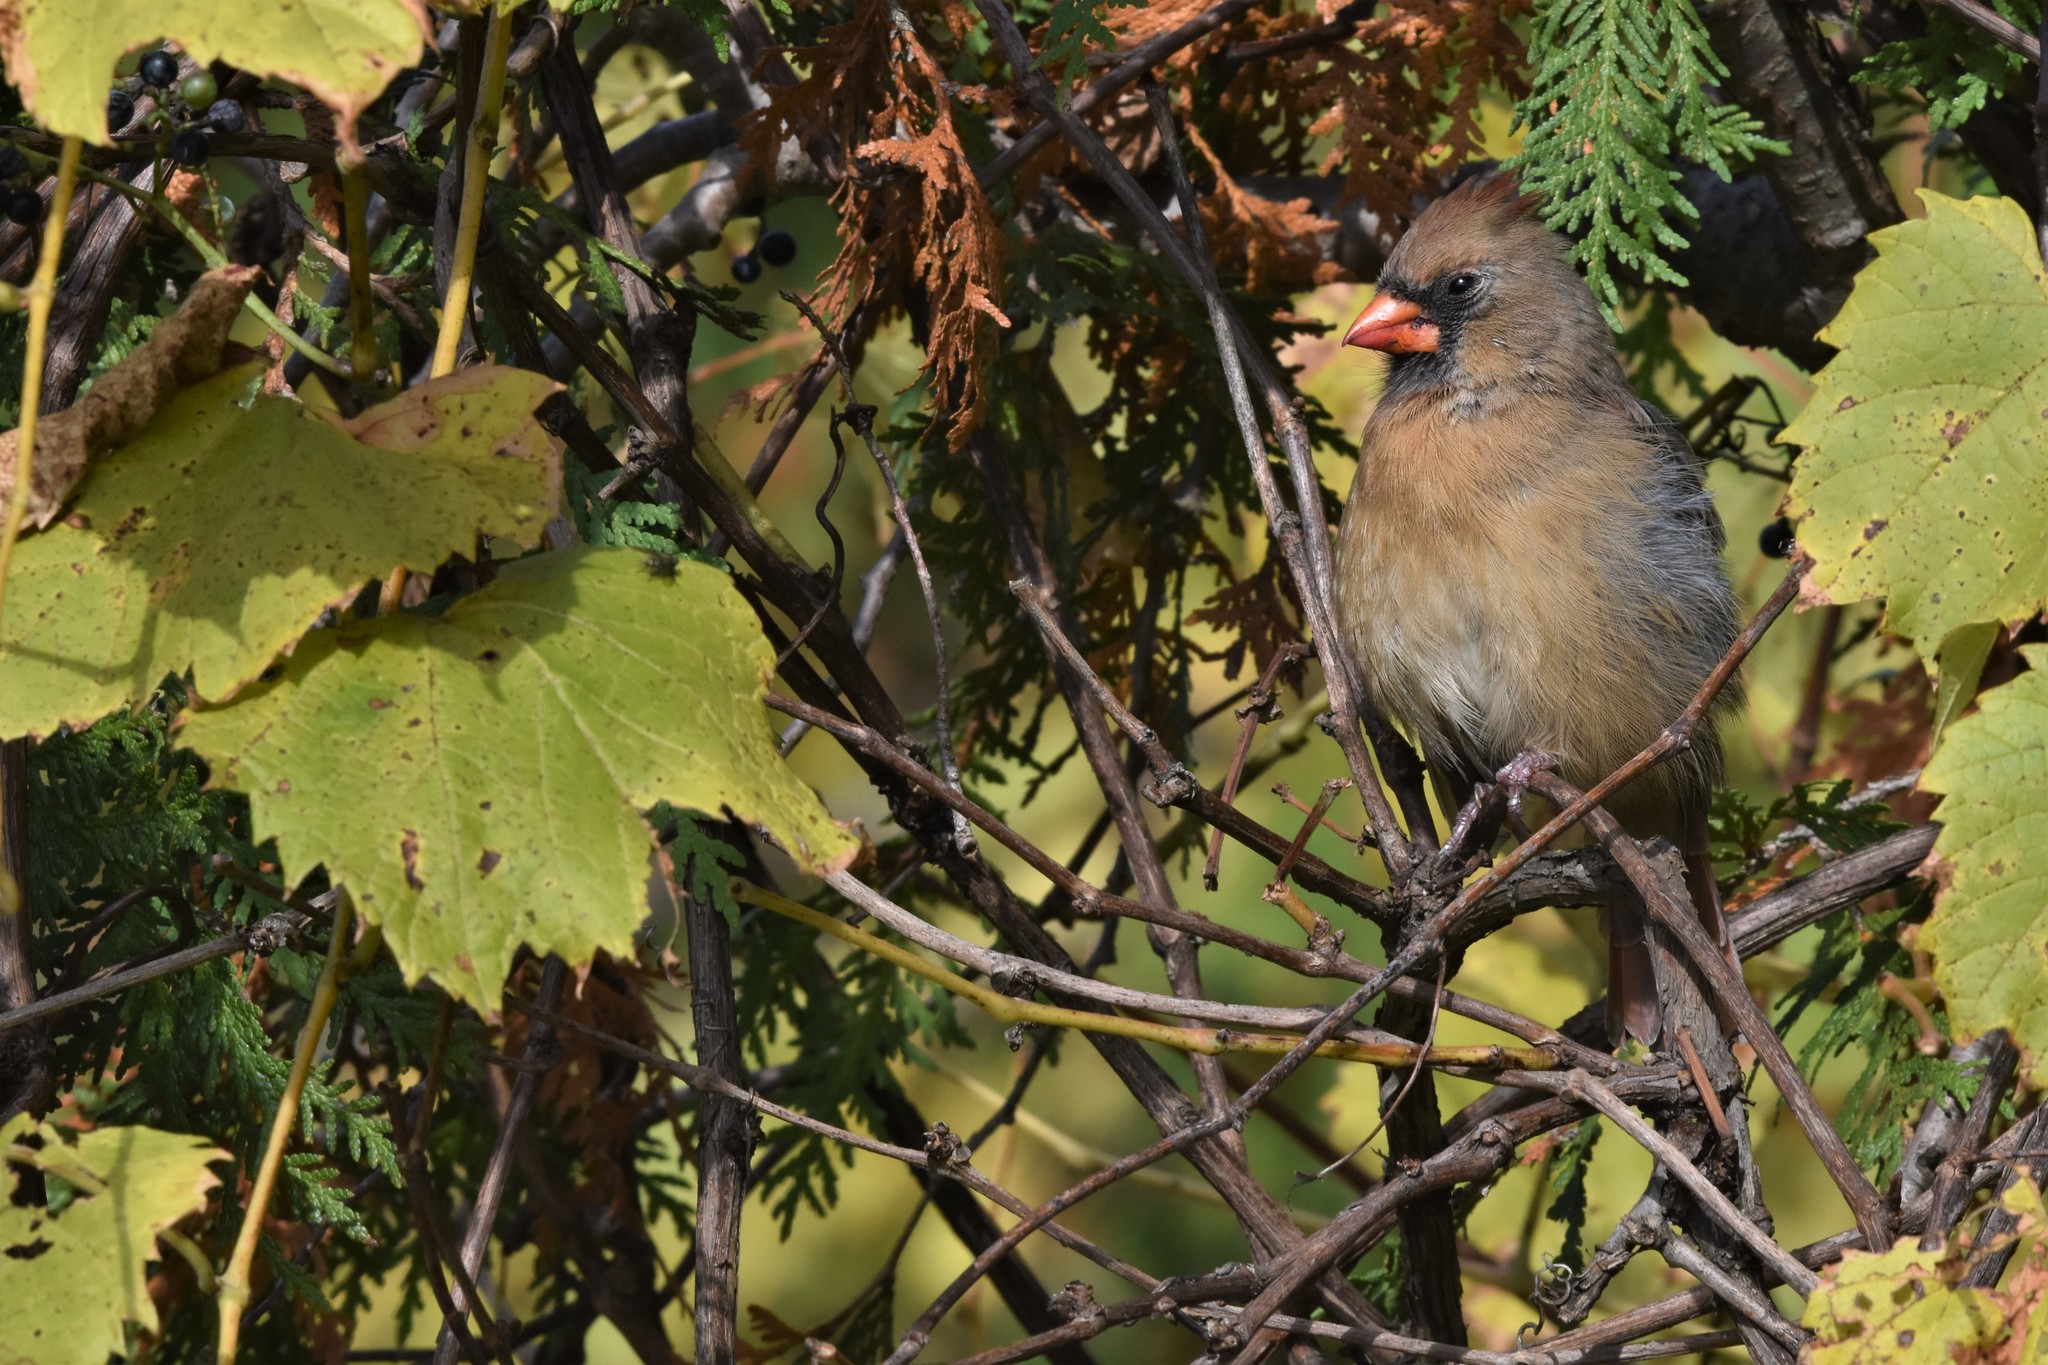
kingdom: Animalia
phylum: Chordata
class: Aves
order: Passeriformes
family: Cardinalidae
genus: Cardinalis
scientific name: Cardinalis cardinalis
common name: Northern cardinal
